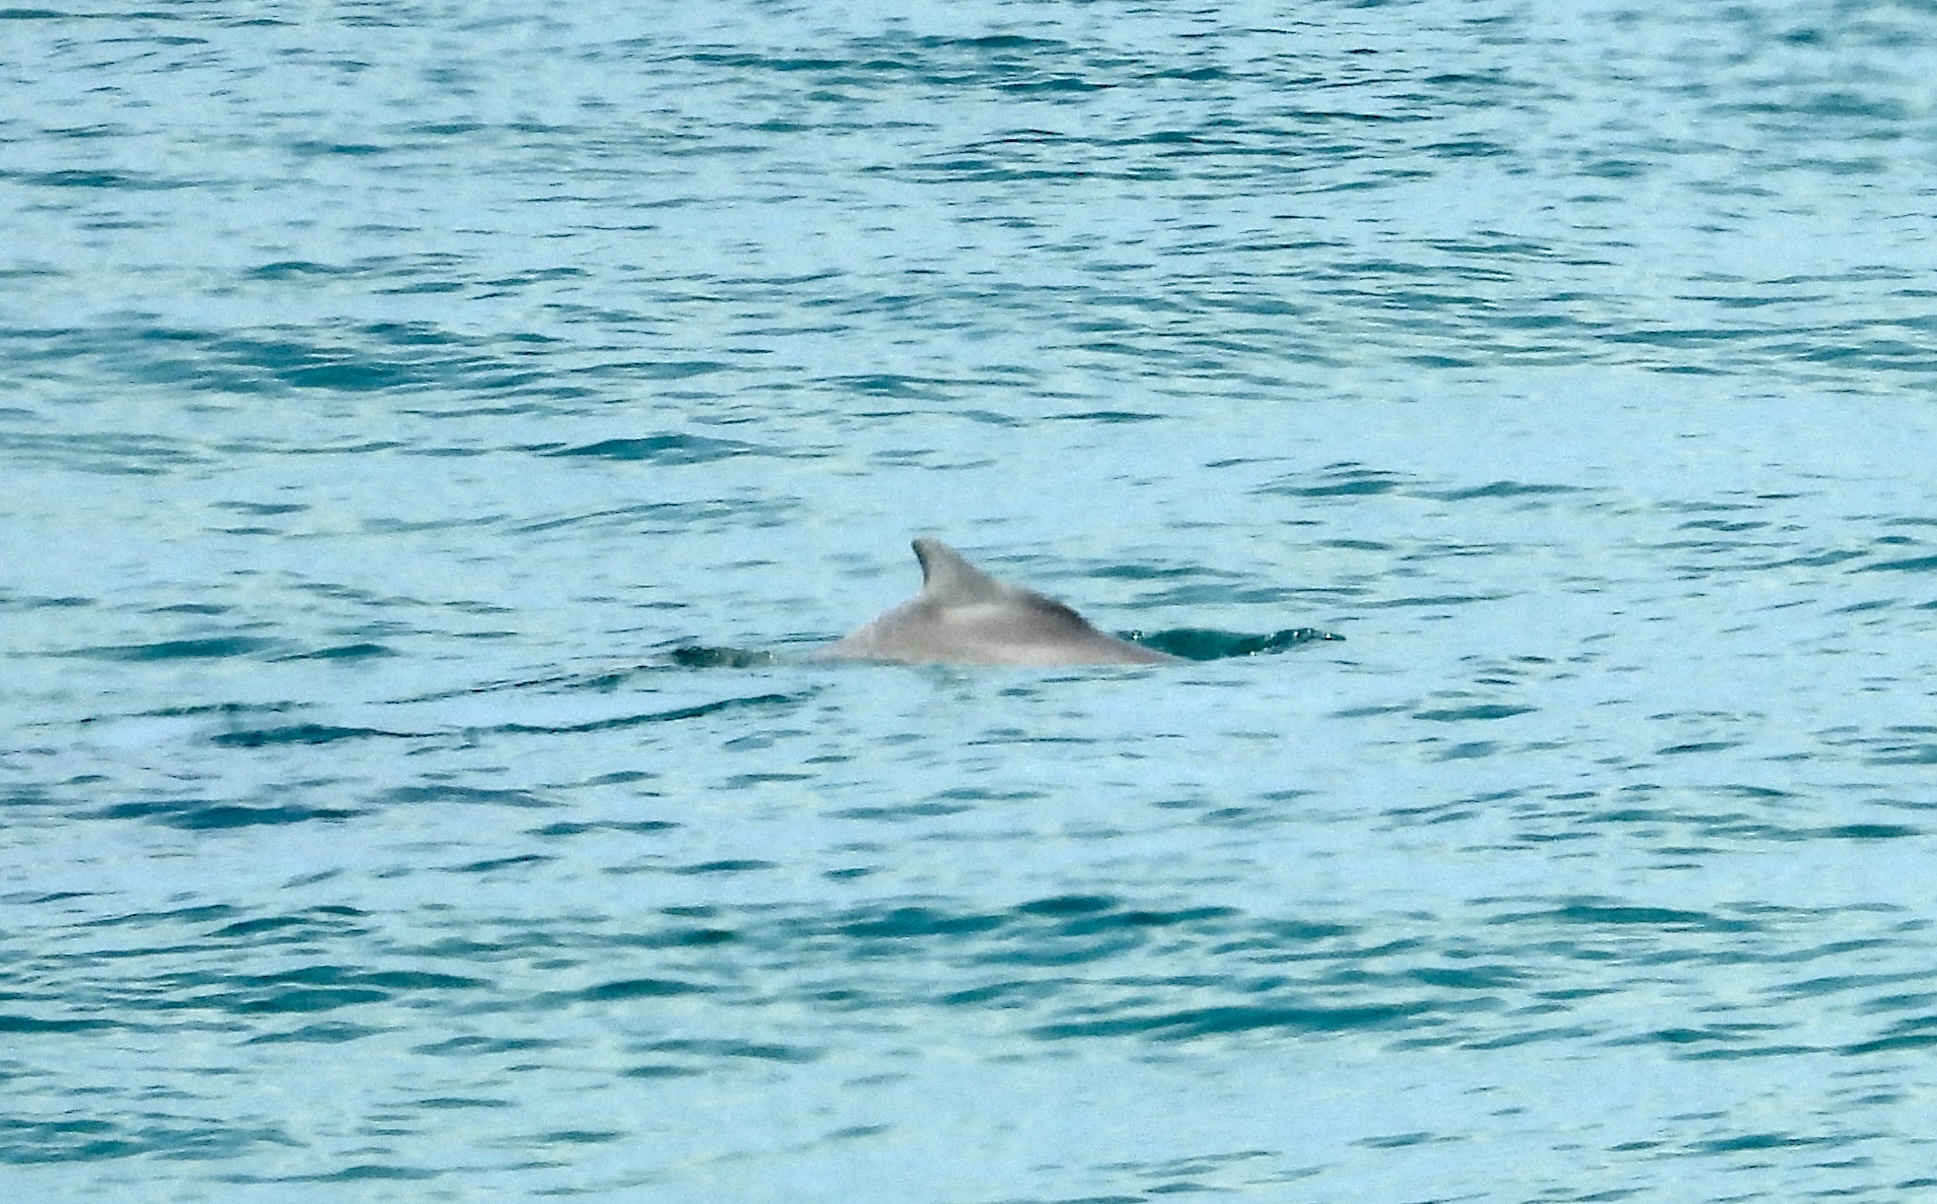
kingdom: Animalia
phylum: Chordata
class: Mammalia
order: Cetacea
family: Delphinidae
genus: Sousa
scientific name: Sousa plumbea
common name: Indian ocean humpback dolphin
